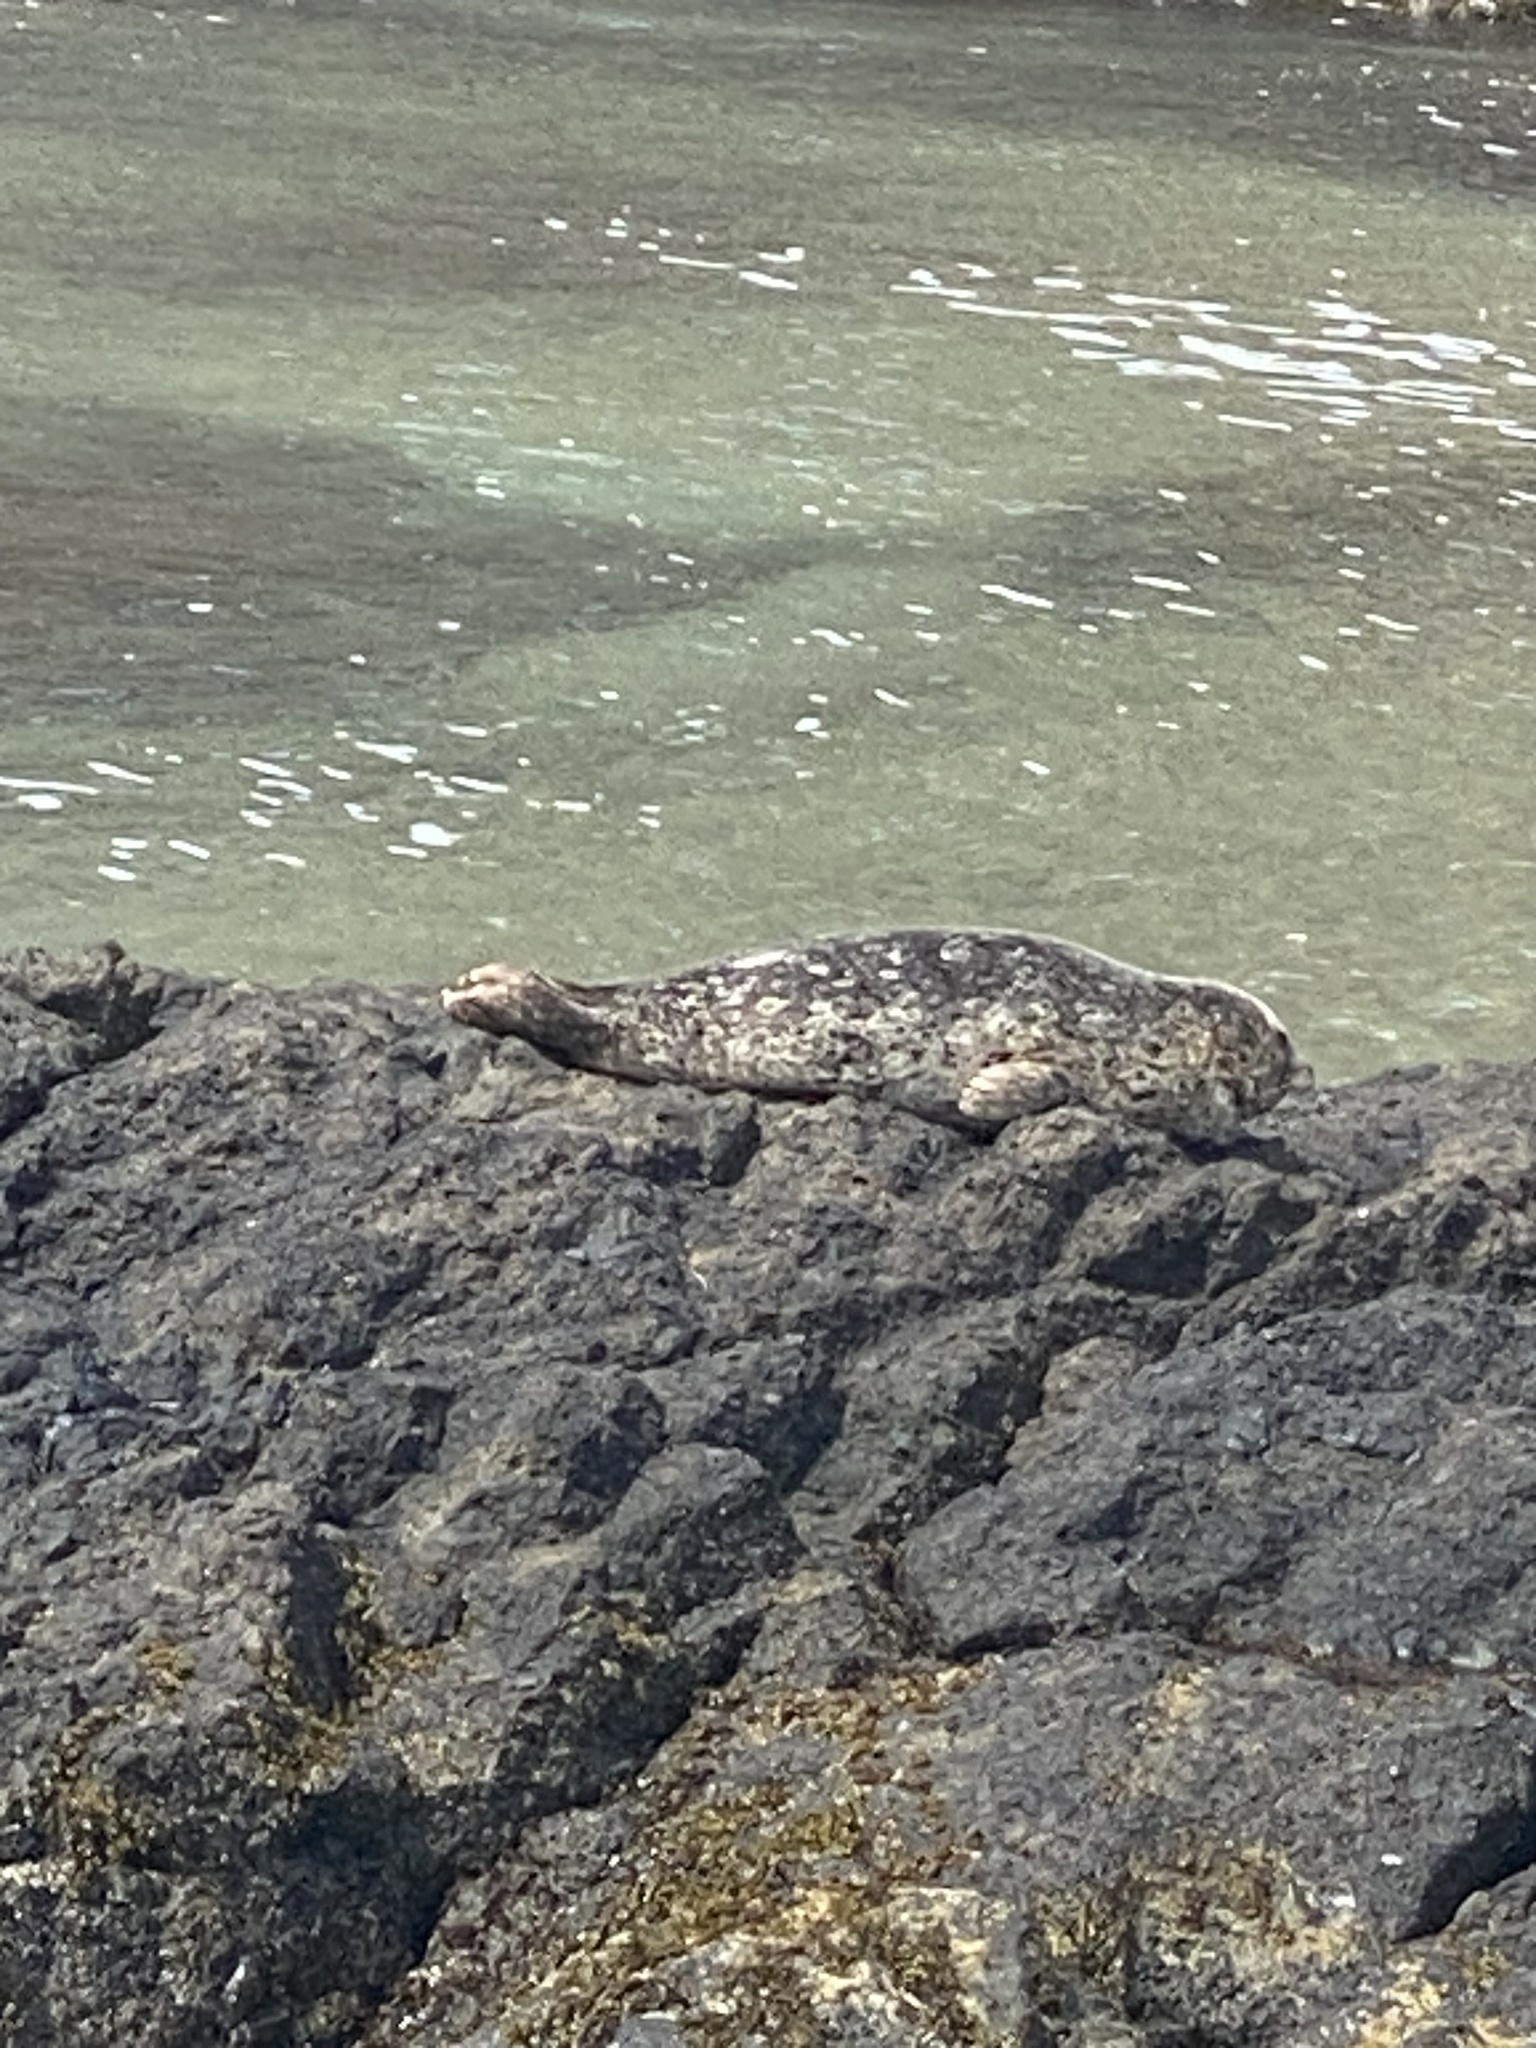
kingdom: Animalia
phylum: Chordata
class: Mammalia
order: Carnivora
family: Phocidae
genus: Phoca
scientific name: Phoca vitulina
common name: Harbor seal
